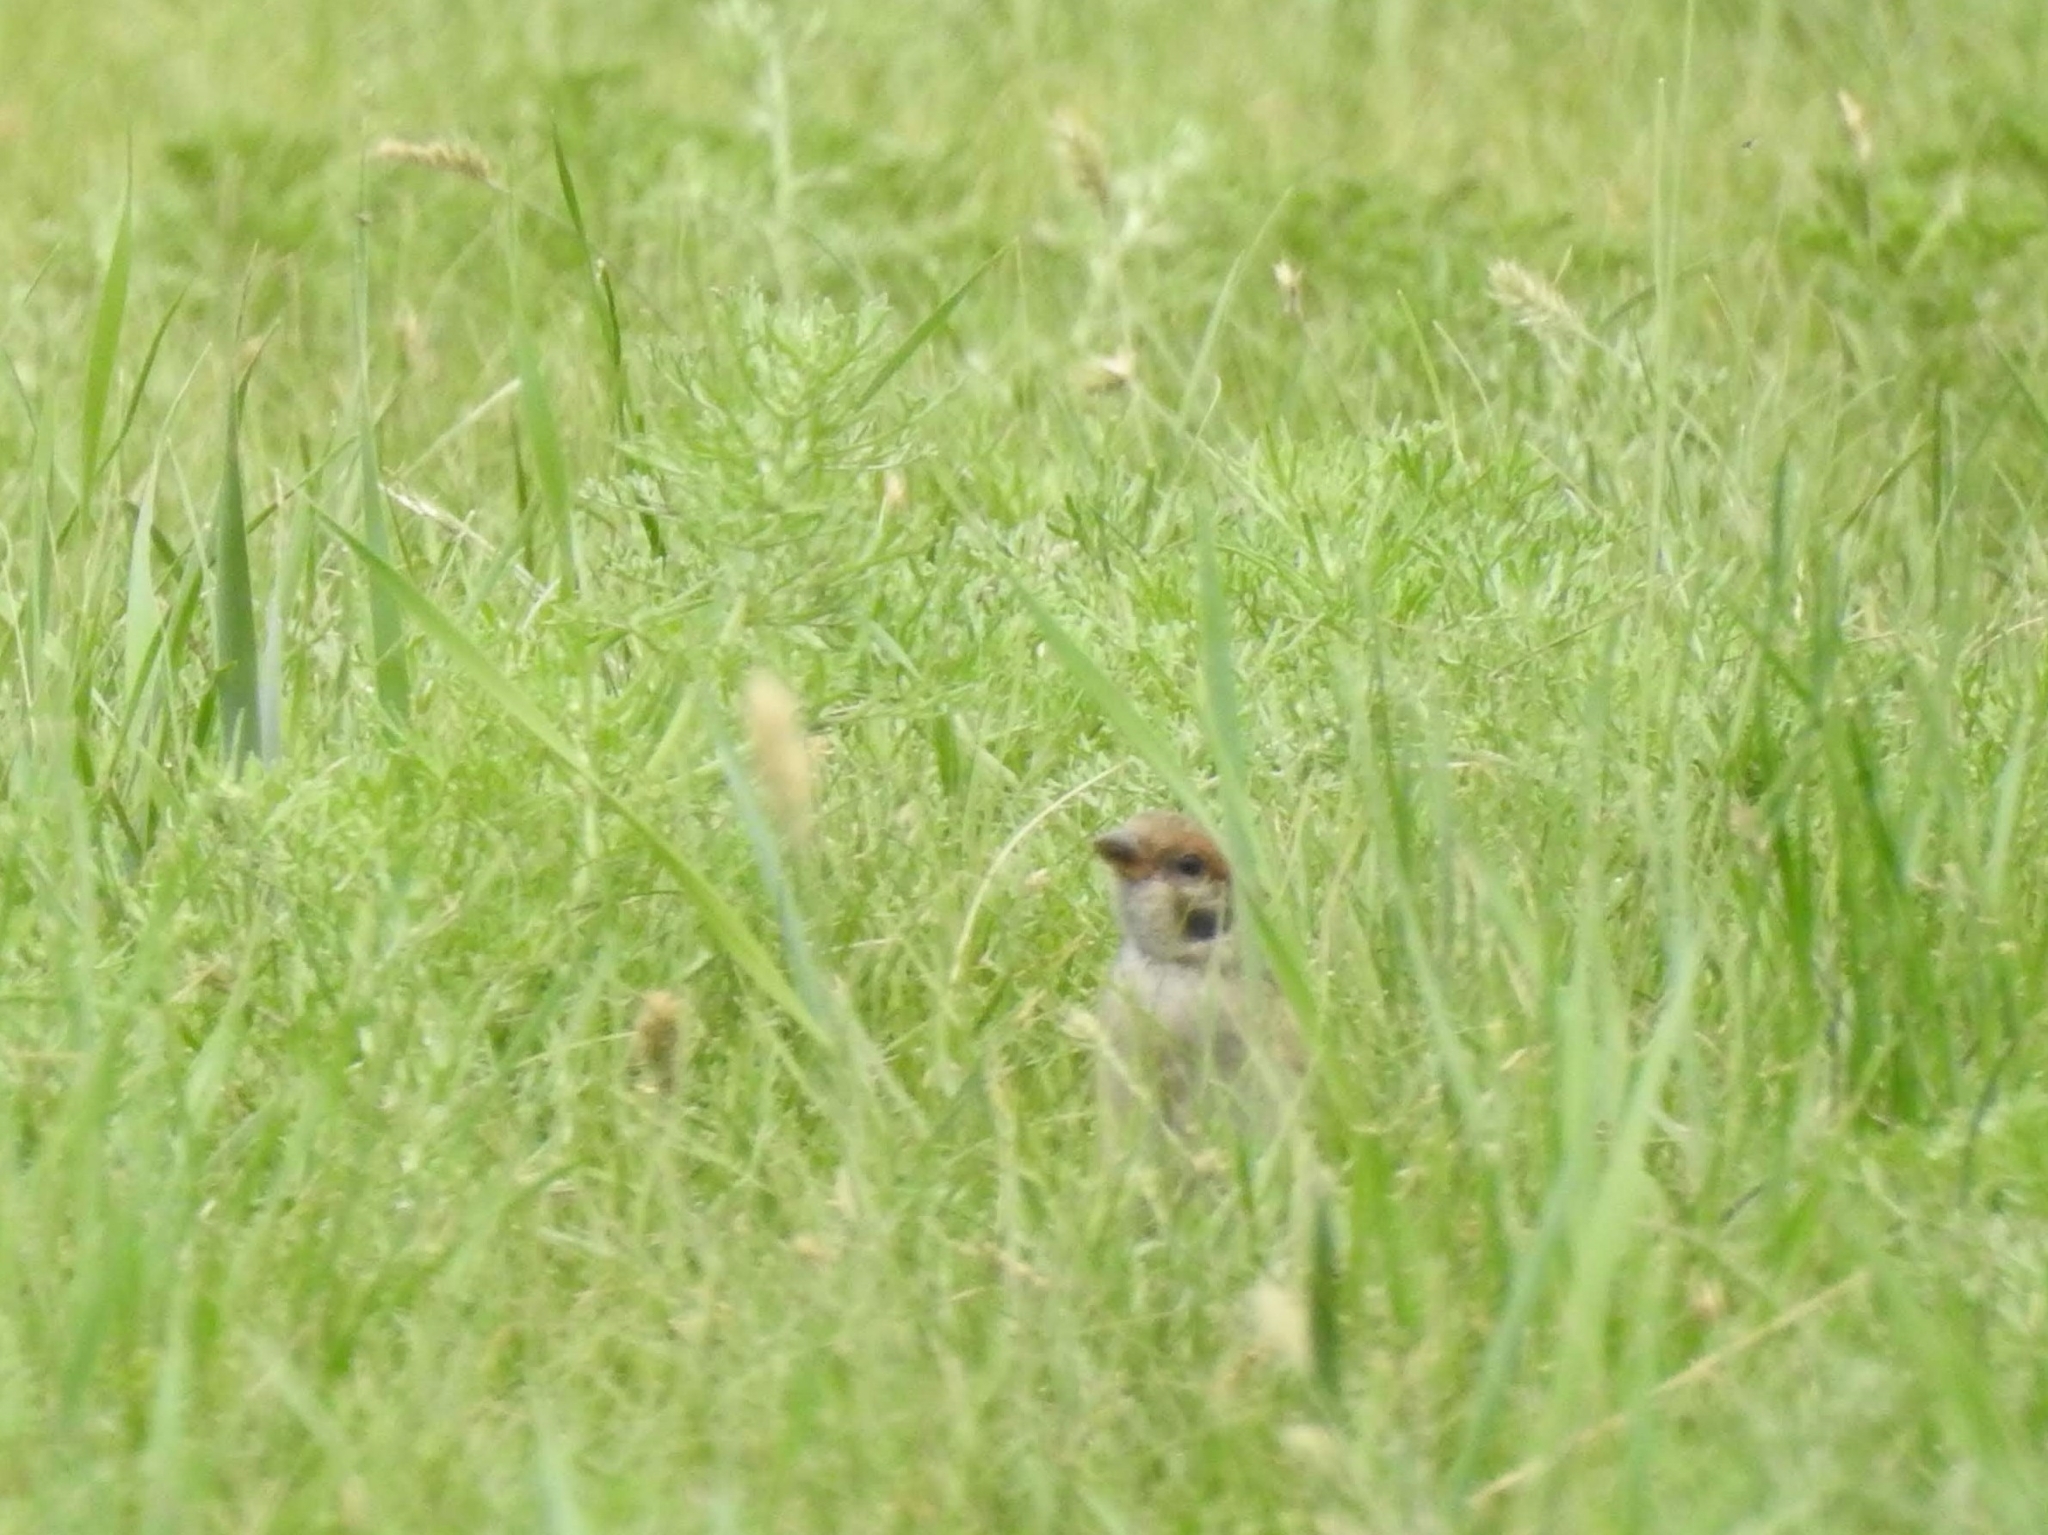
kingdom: Animalia
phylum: Chordata
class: Aves
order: Passeriformes
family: Passeridae
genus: Passer
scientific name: Passer montanus
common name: Eurasian tree sparrow
